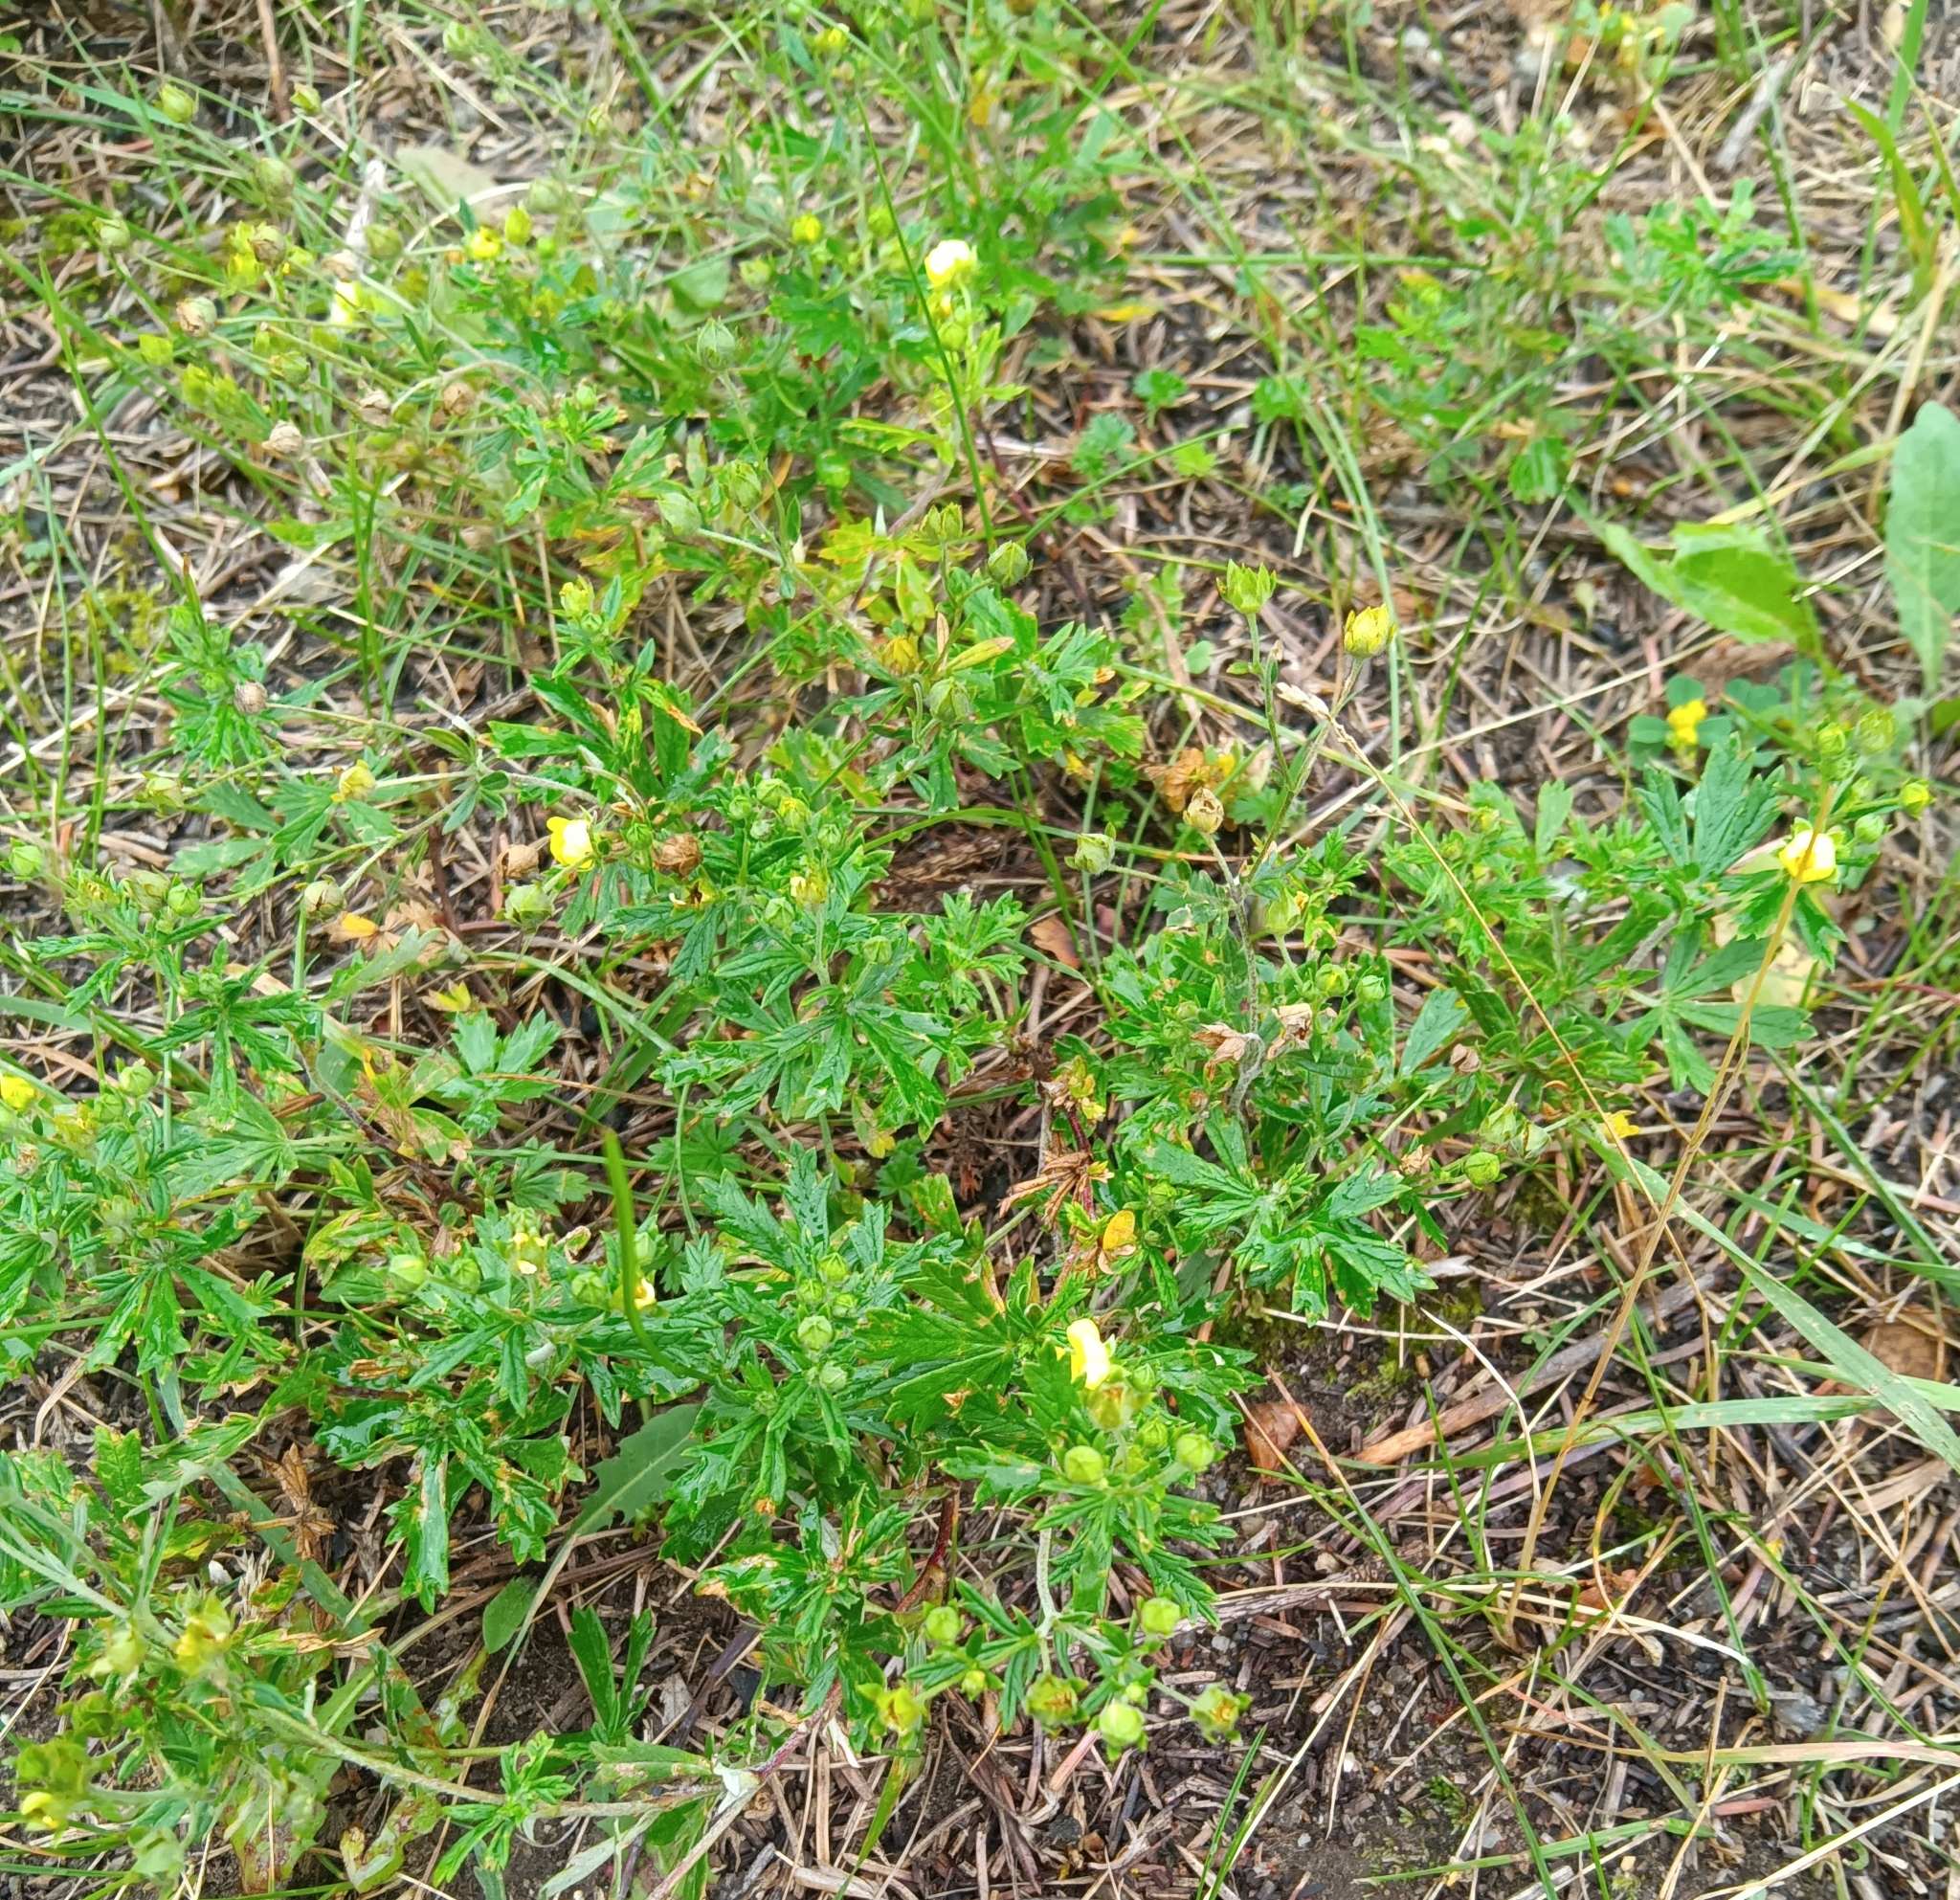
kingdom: Plantae
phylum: Tracheophyta
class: Magnoliopsida
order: Rosales
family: Rosaceae
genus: Potentilla
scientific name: Potentilla argentea
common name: Hoary cinquefoil
